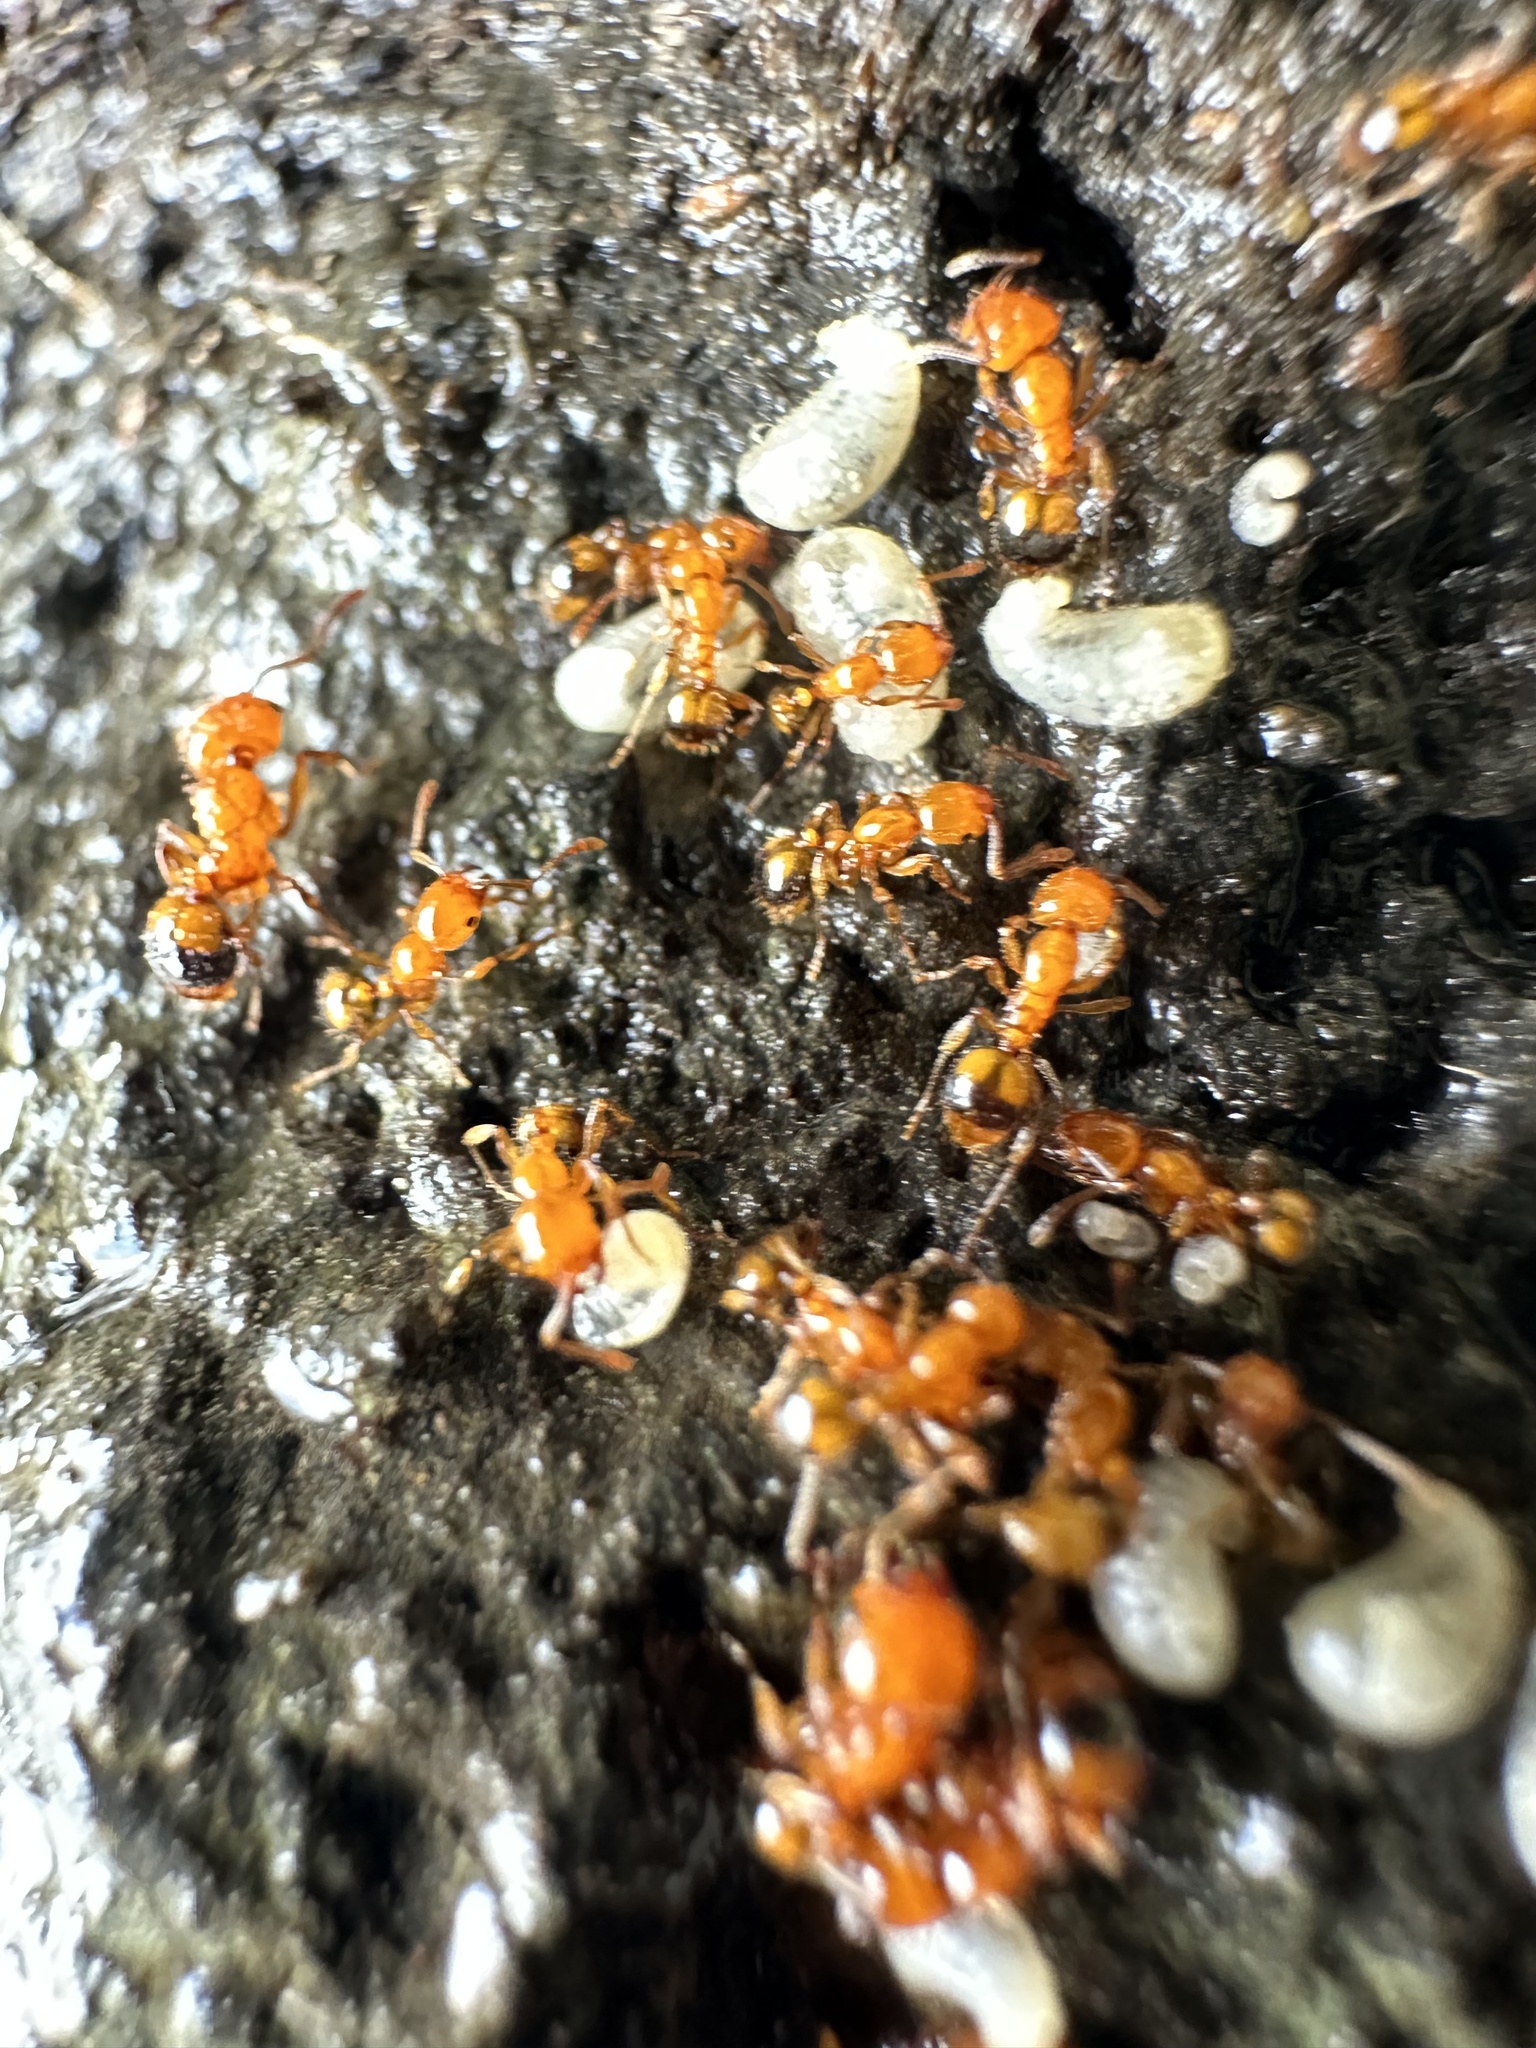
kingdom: Animalia
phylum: Arthropoda
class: Insecta
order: Hymenoptera
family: Formicidae
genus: Monomorium
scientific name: Monomorium latastei
